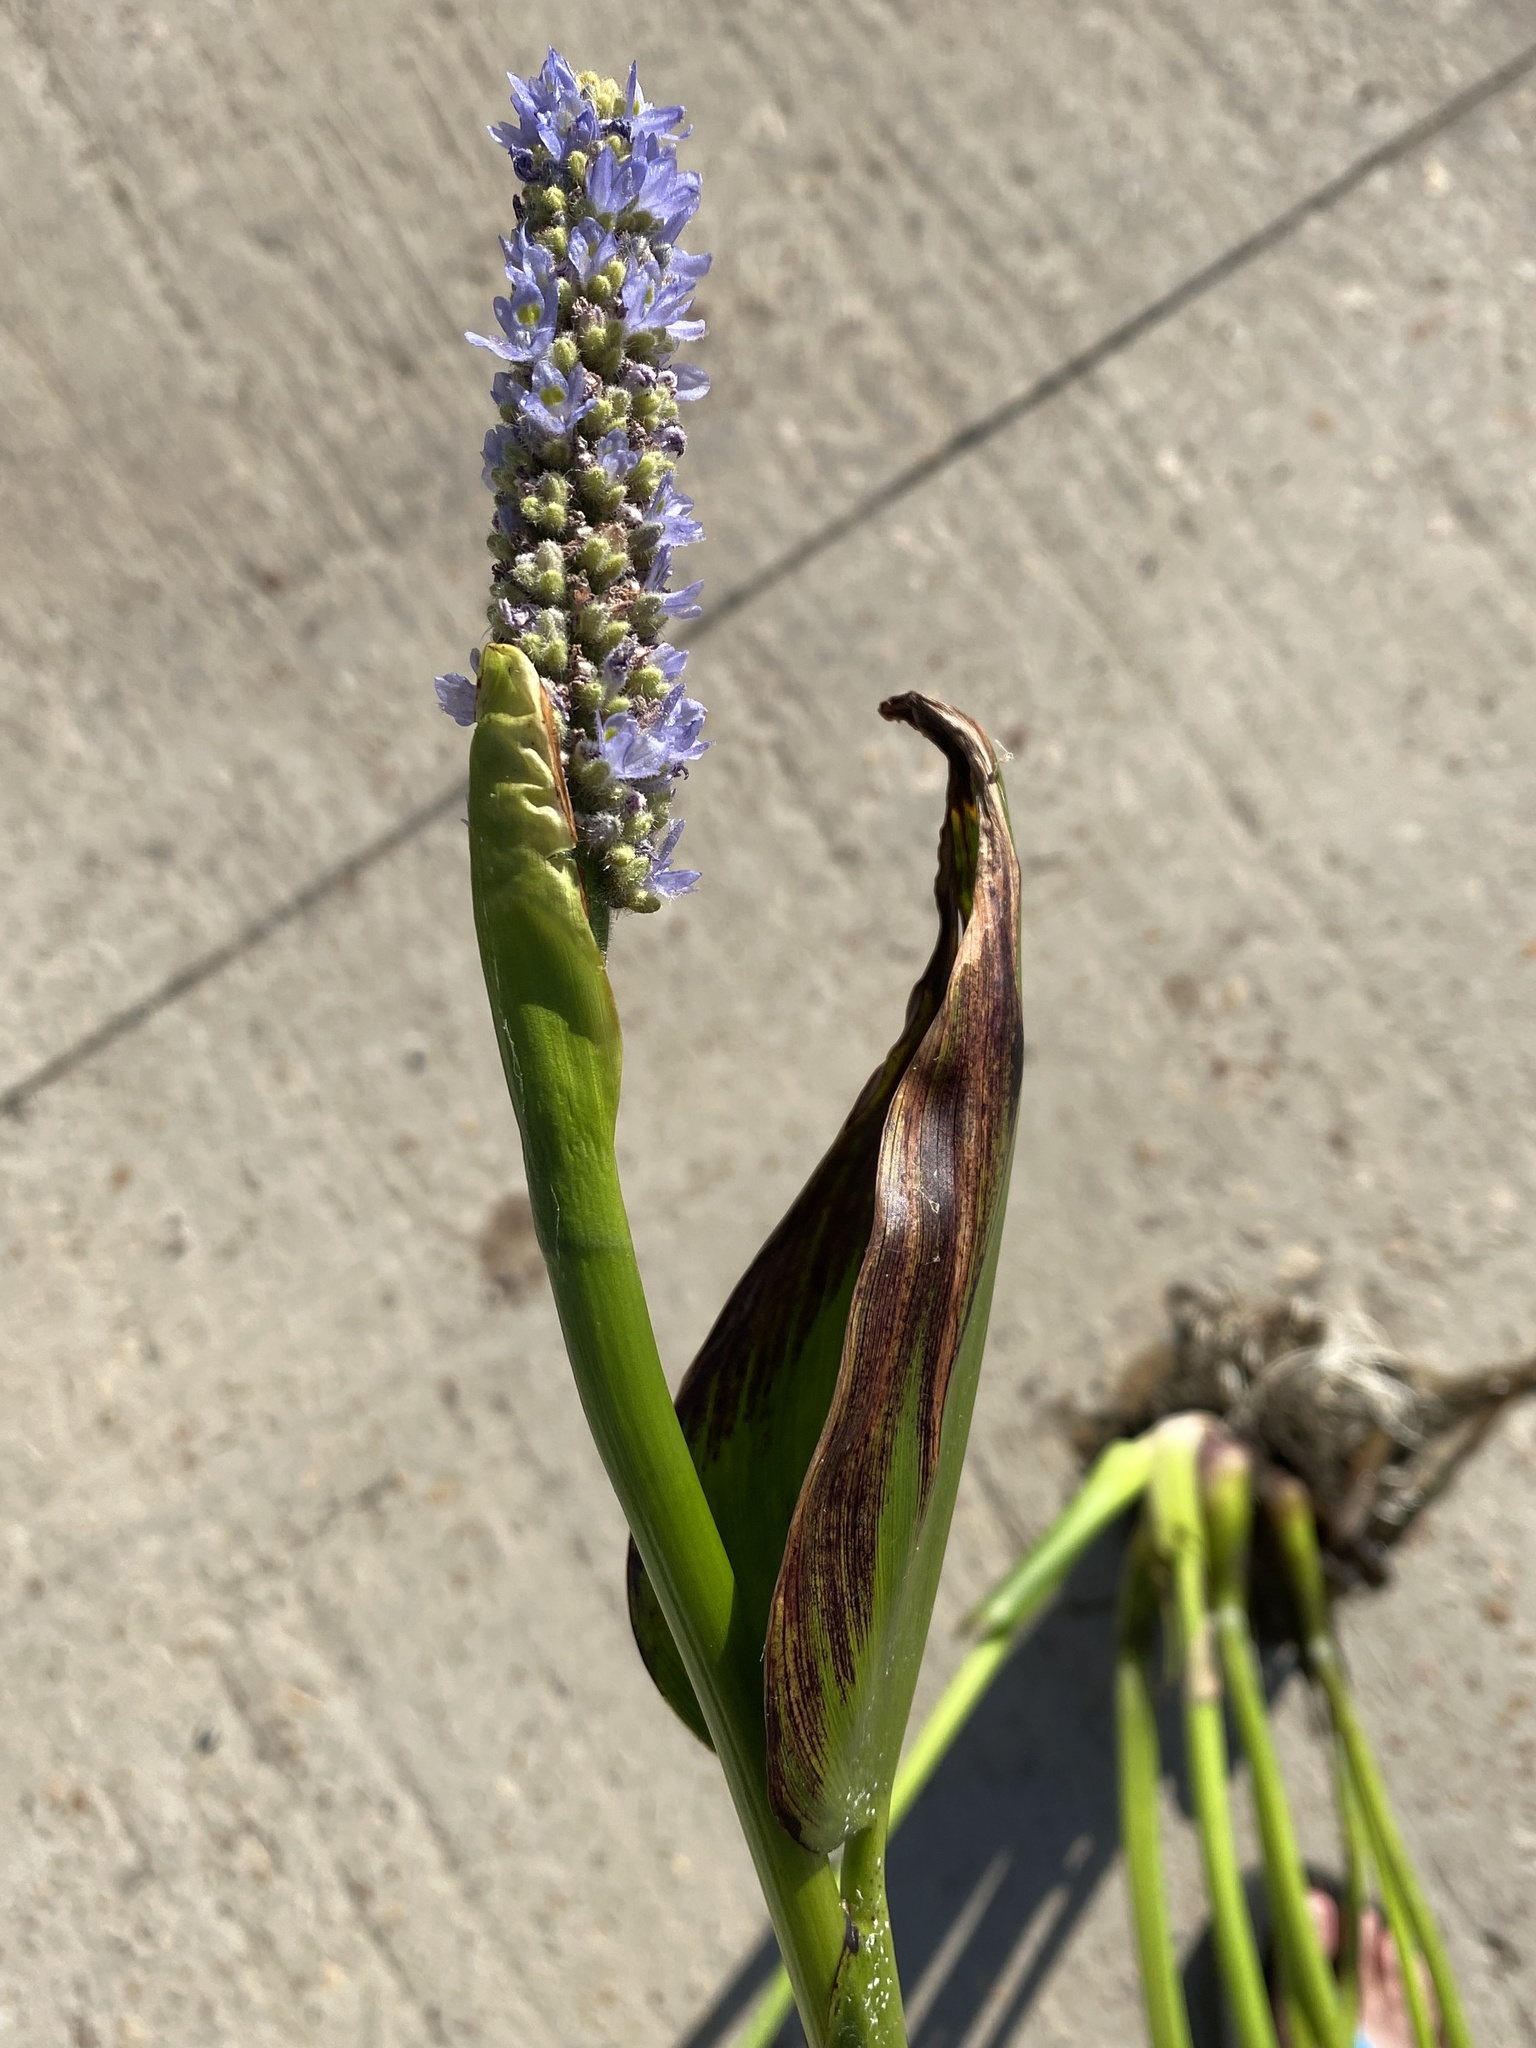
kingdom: Plantae
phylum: Tracheophyta
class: Liliopsida
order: Commelinales
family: Pontederiaceae
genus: Pontederia
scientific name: Pontederia cordata
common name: Pickerelweed
